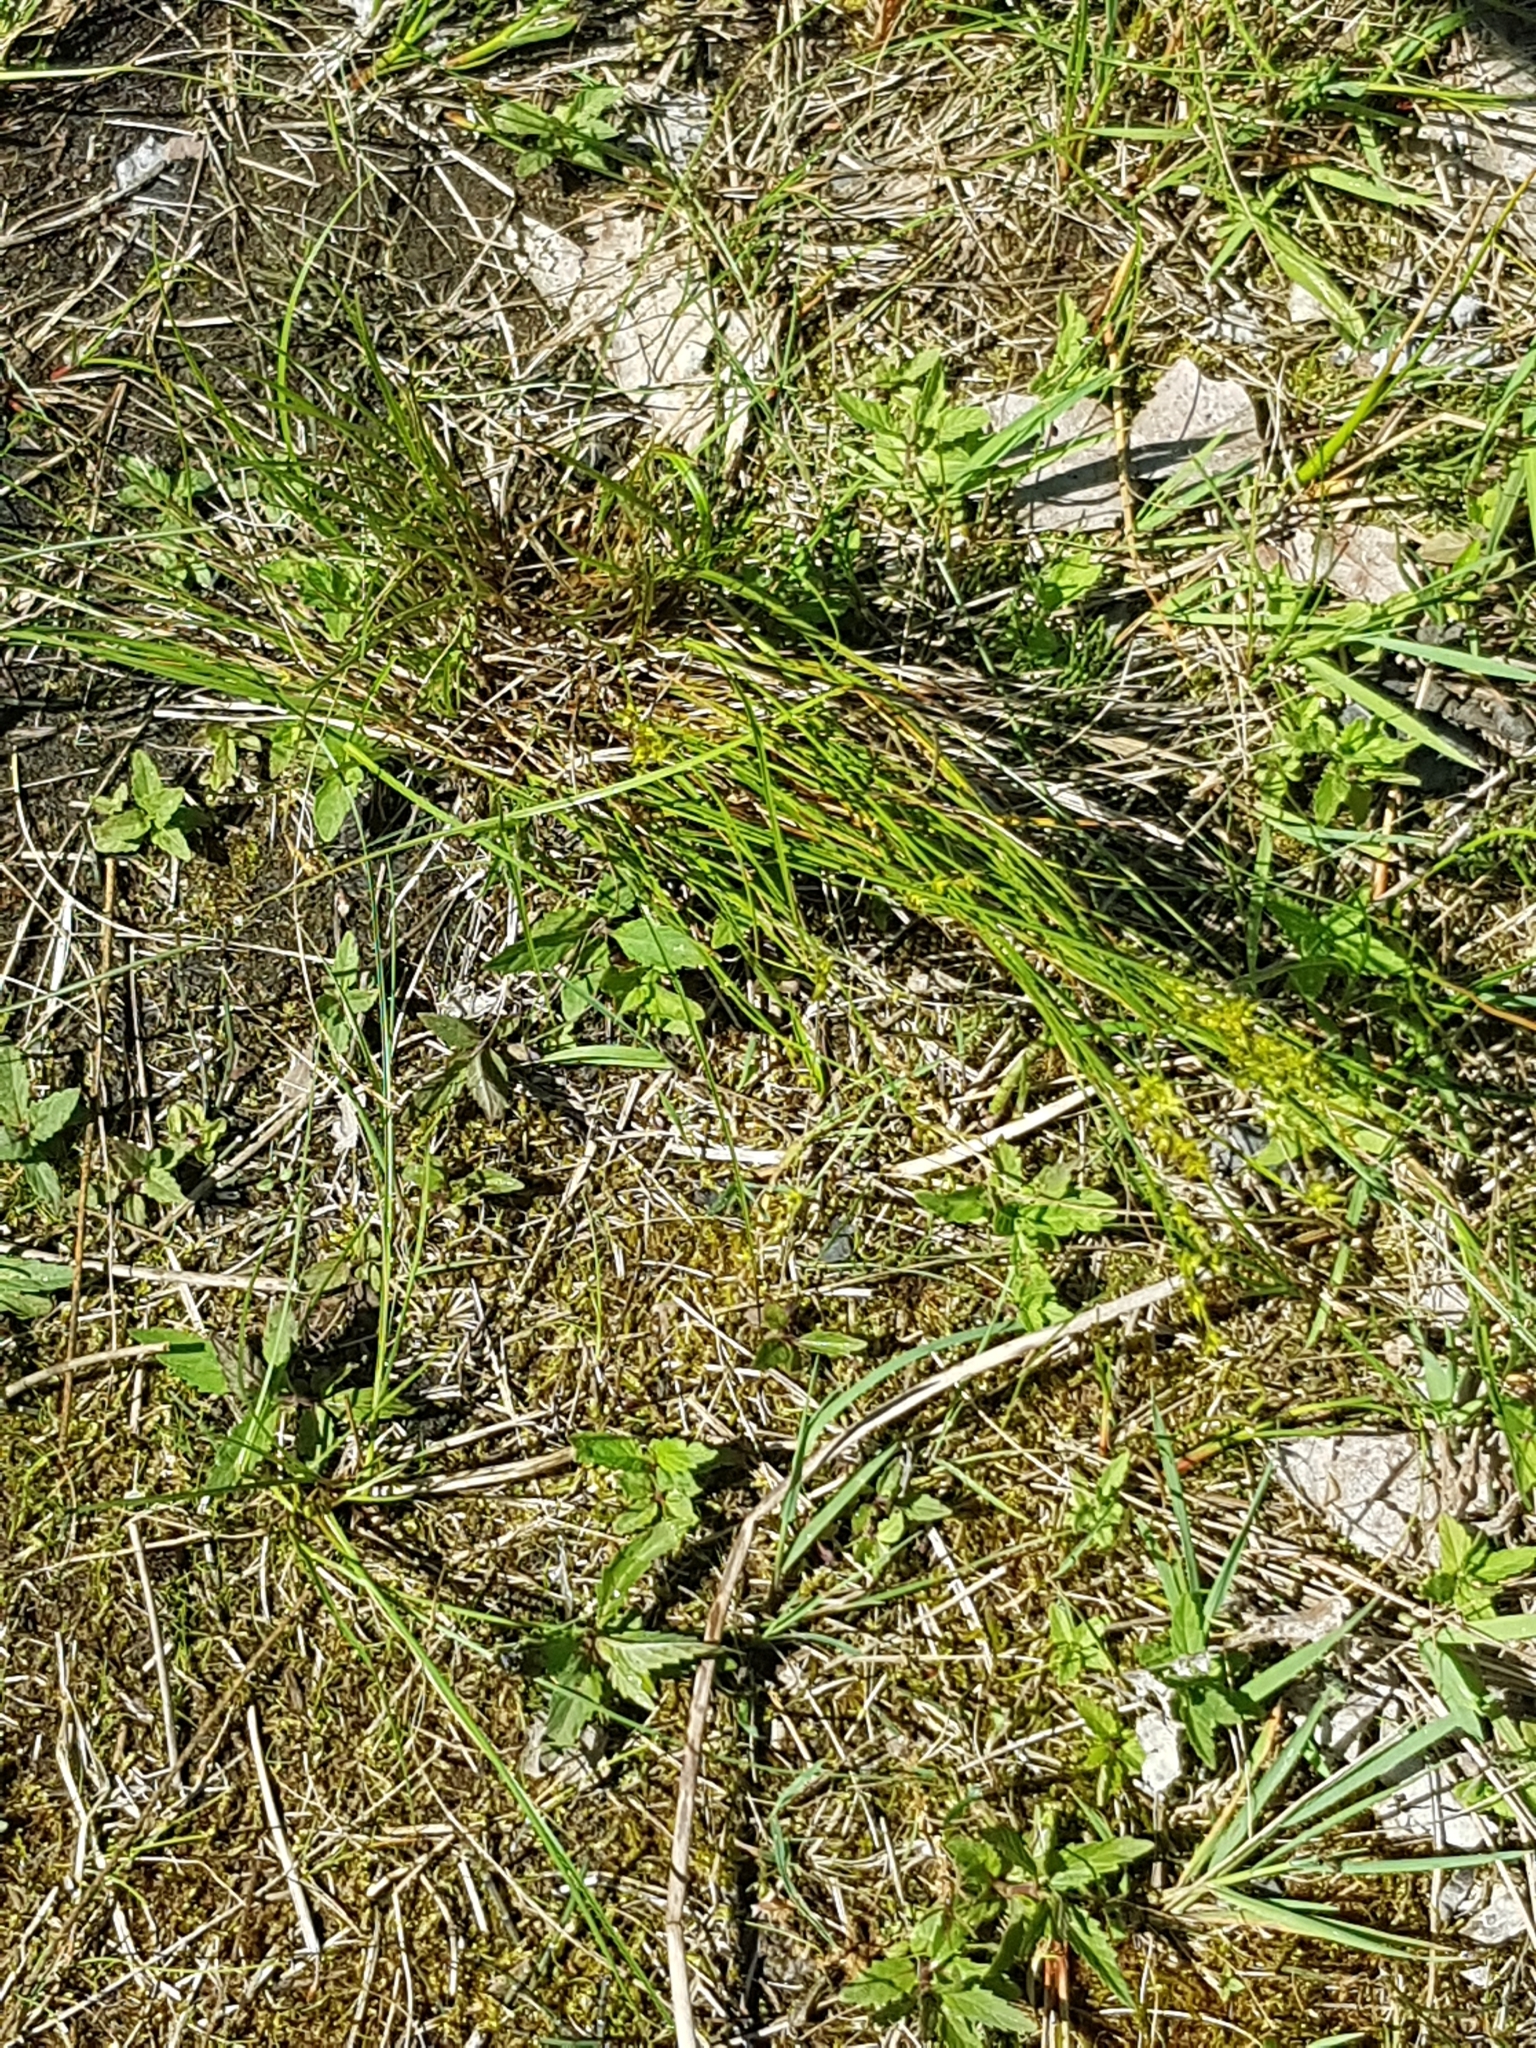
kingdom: Plantae
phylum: Tracheophyta
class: Liliopsida
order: Poales
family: Cyperaceae
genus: Carex
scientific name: Carex echinata
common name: Star sedge
